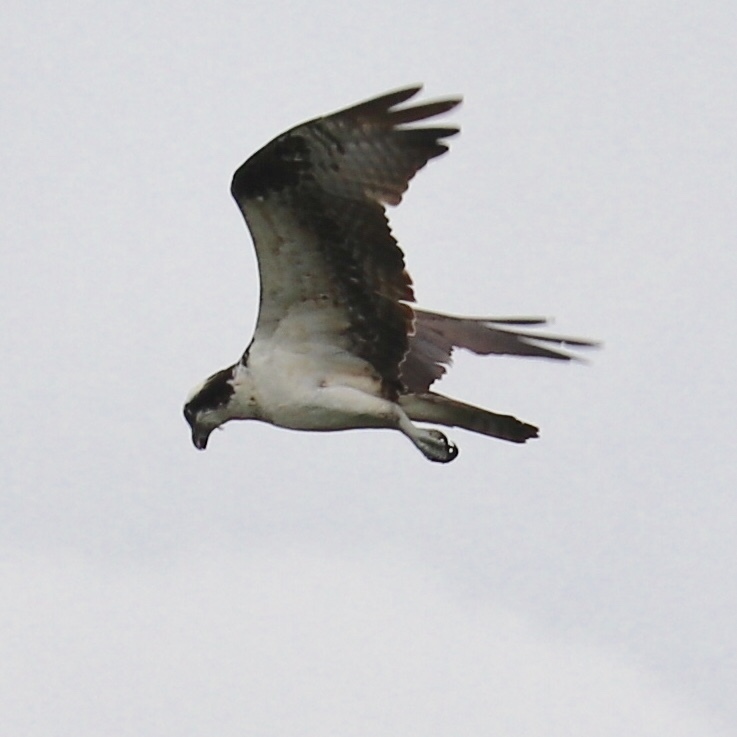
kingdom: Animalia
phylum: Chordata
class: Aves
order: Accipitriformes
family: Pandionidae
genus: Pandion
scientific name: Pandion haliaetus
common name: Osprey
